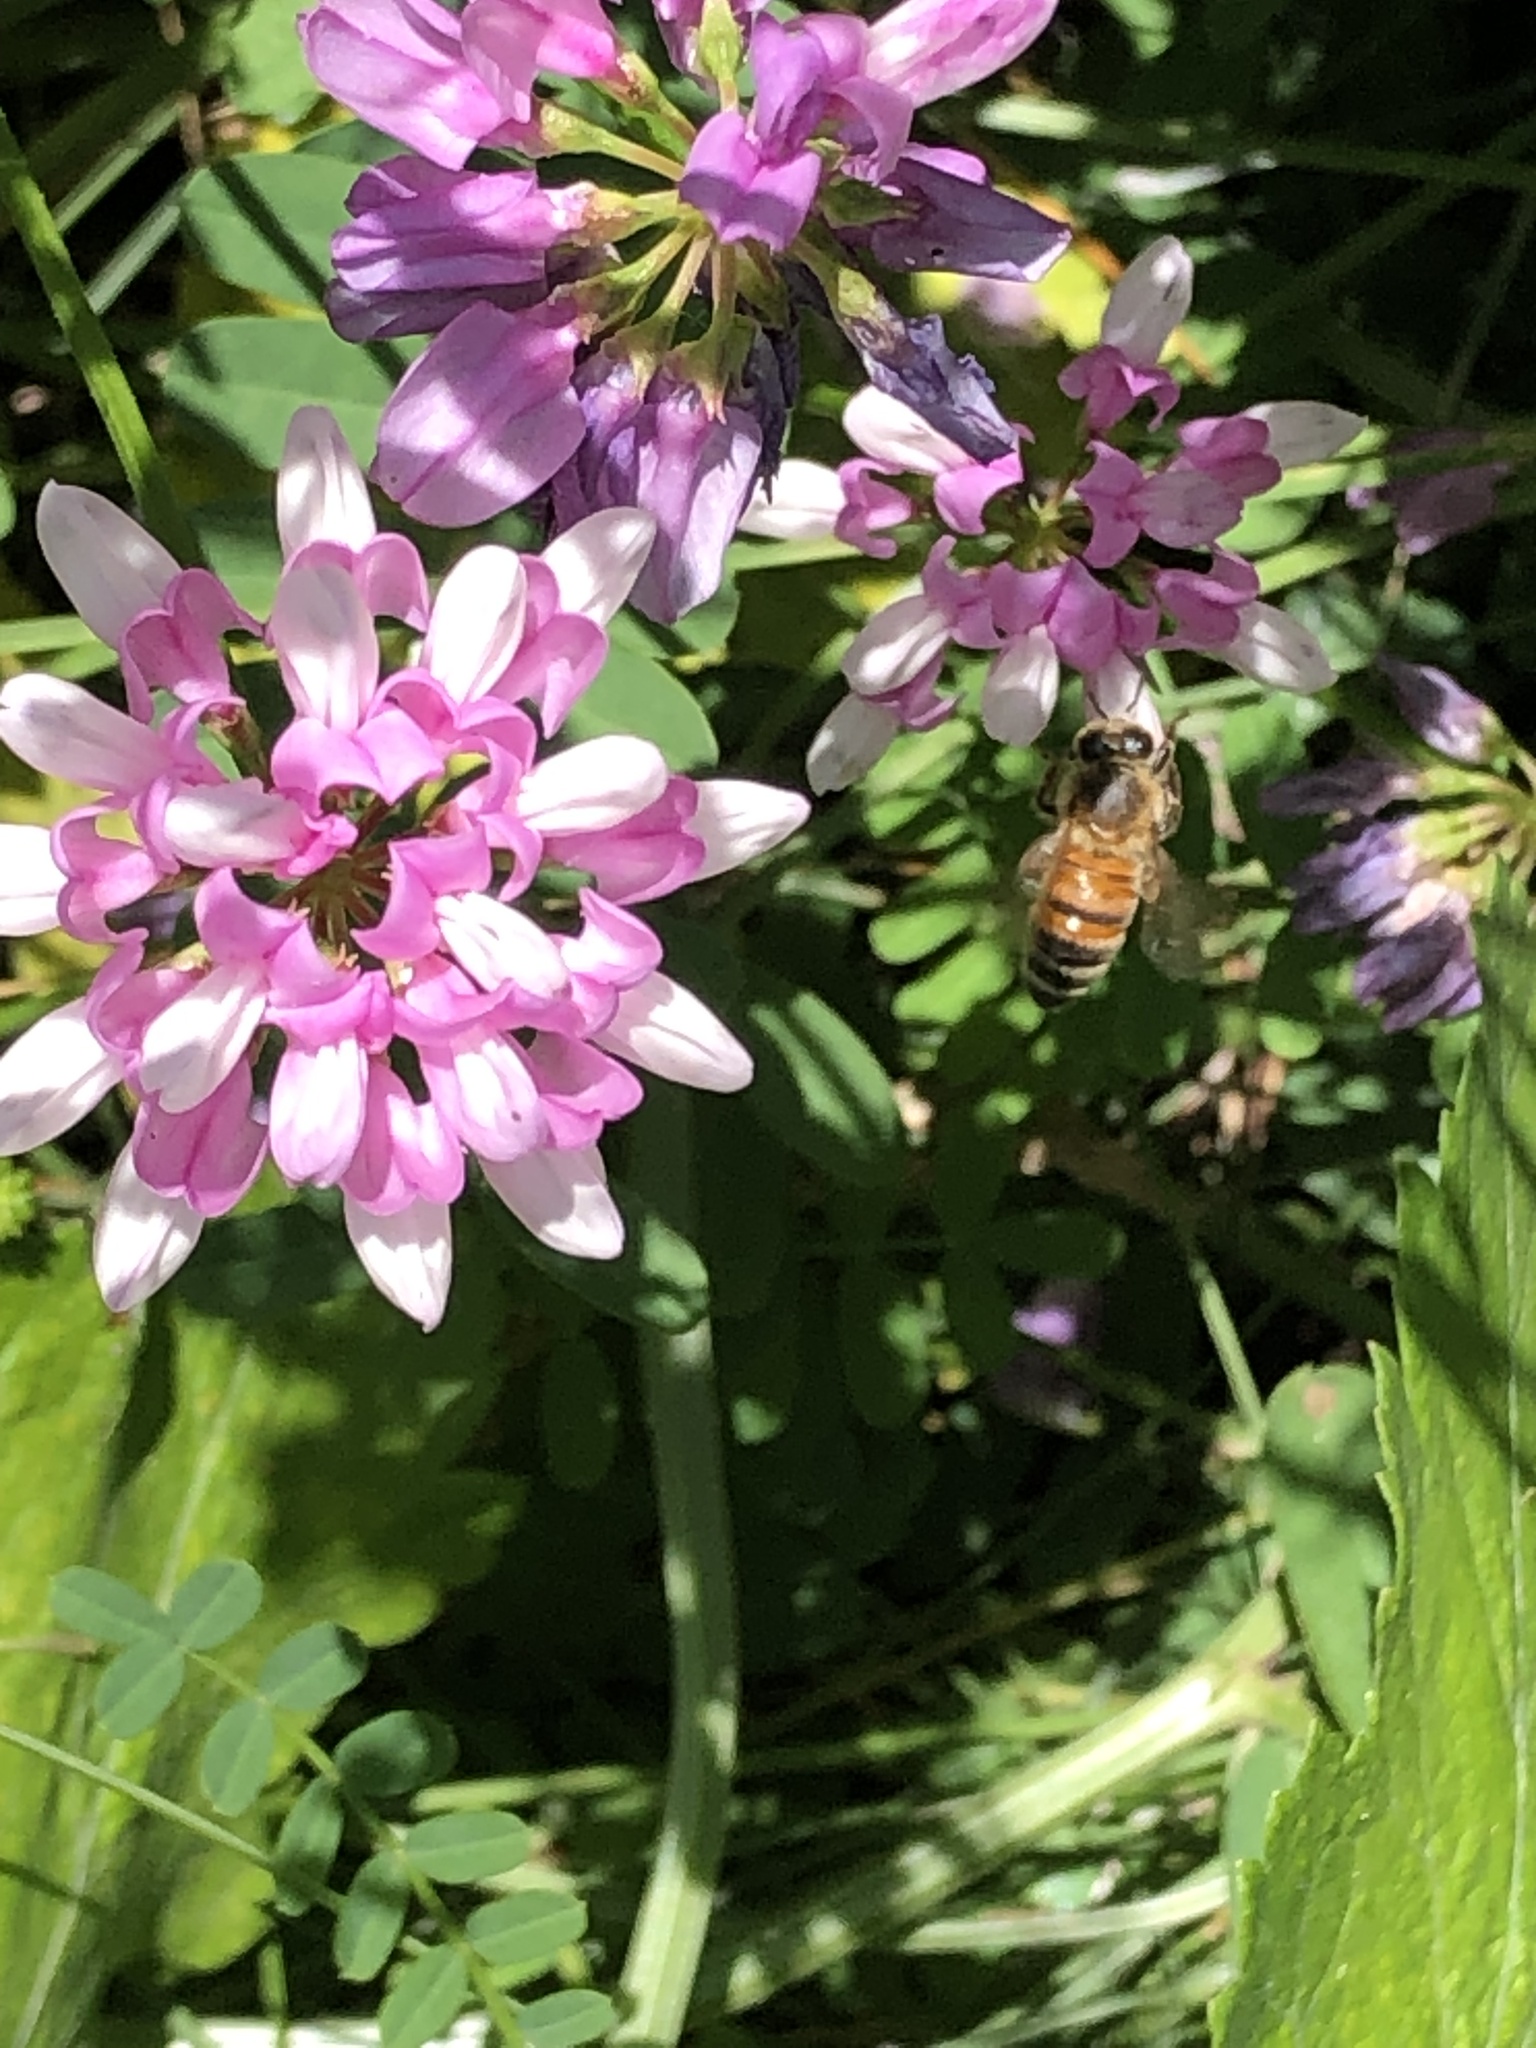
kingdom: Plantae
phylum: Tracheophyta
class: Magnoliopsida
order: Fabales
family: Fabaceae
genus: Coronilla
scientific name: Coronilla varia
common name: Crownvetch
